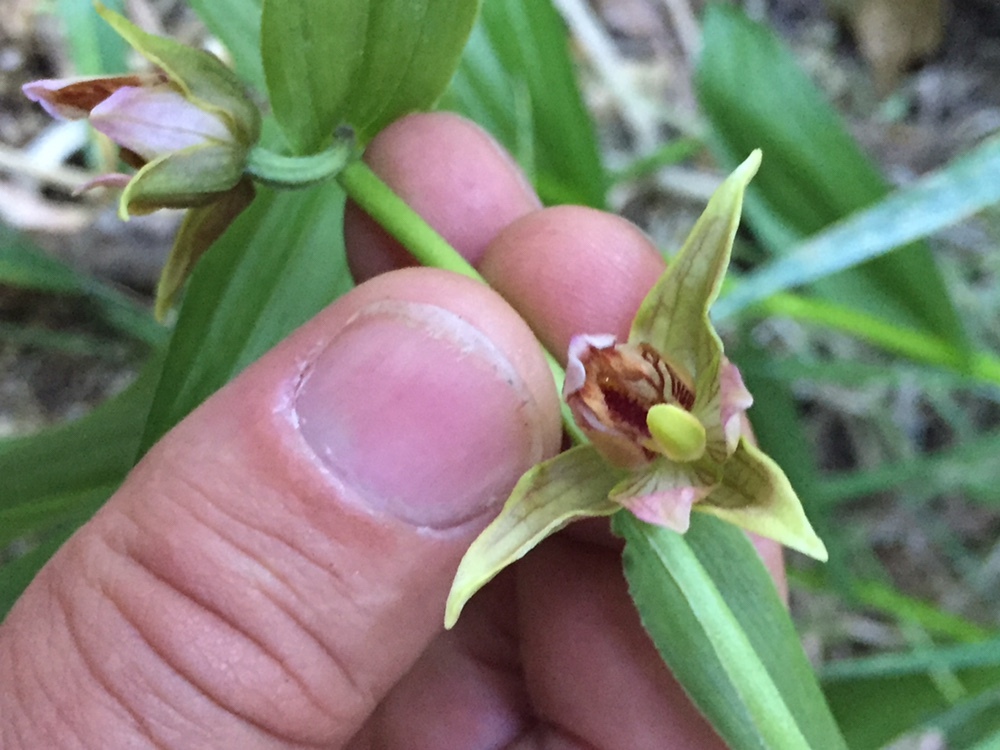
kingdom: Plantae
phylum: Tracheophyta
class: Liliopsida
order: Asparagales
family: Orchidaceae
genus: Epipactis
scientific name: Epipactis gigantea
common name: Chatterbox
